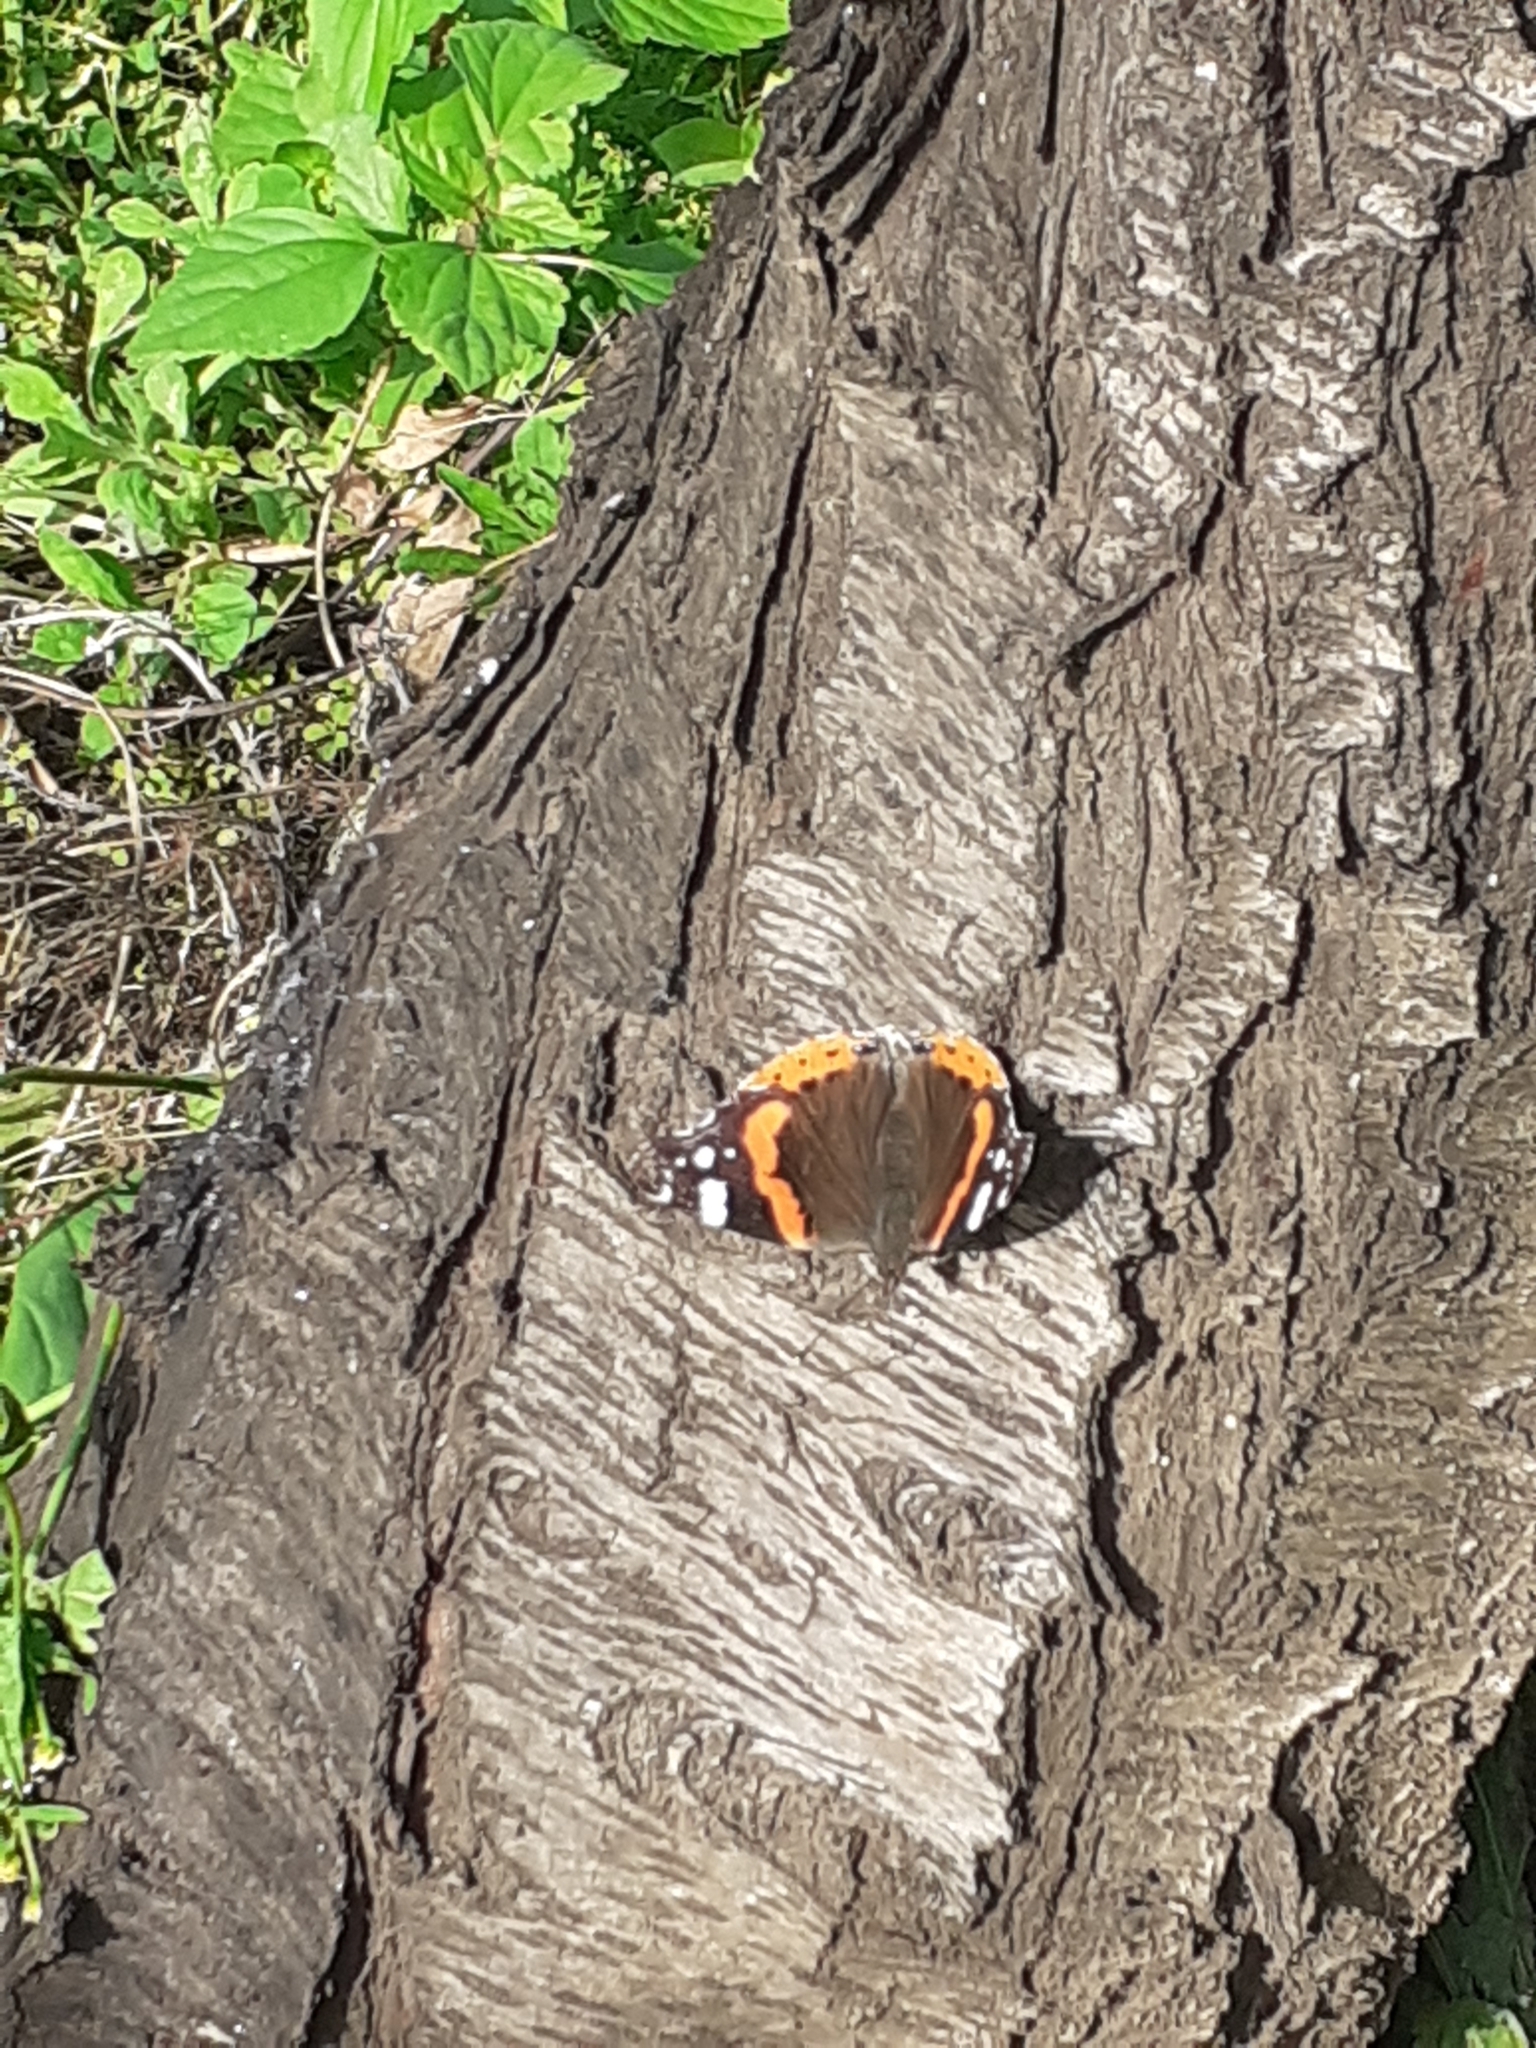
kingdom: Animalia
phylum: Arthropoda
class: Insecta
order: Lepidoptera
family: Nymphalidae
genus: Vanessa
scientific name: Vanessa atalanta
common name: Red admiral
